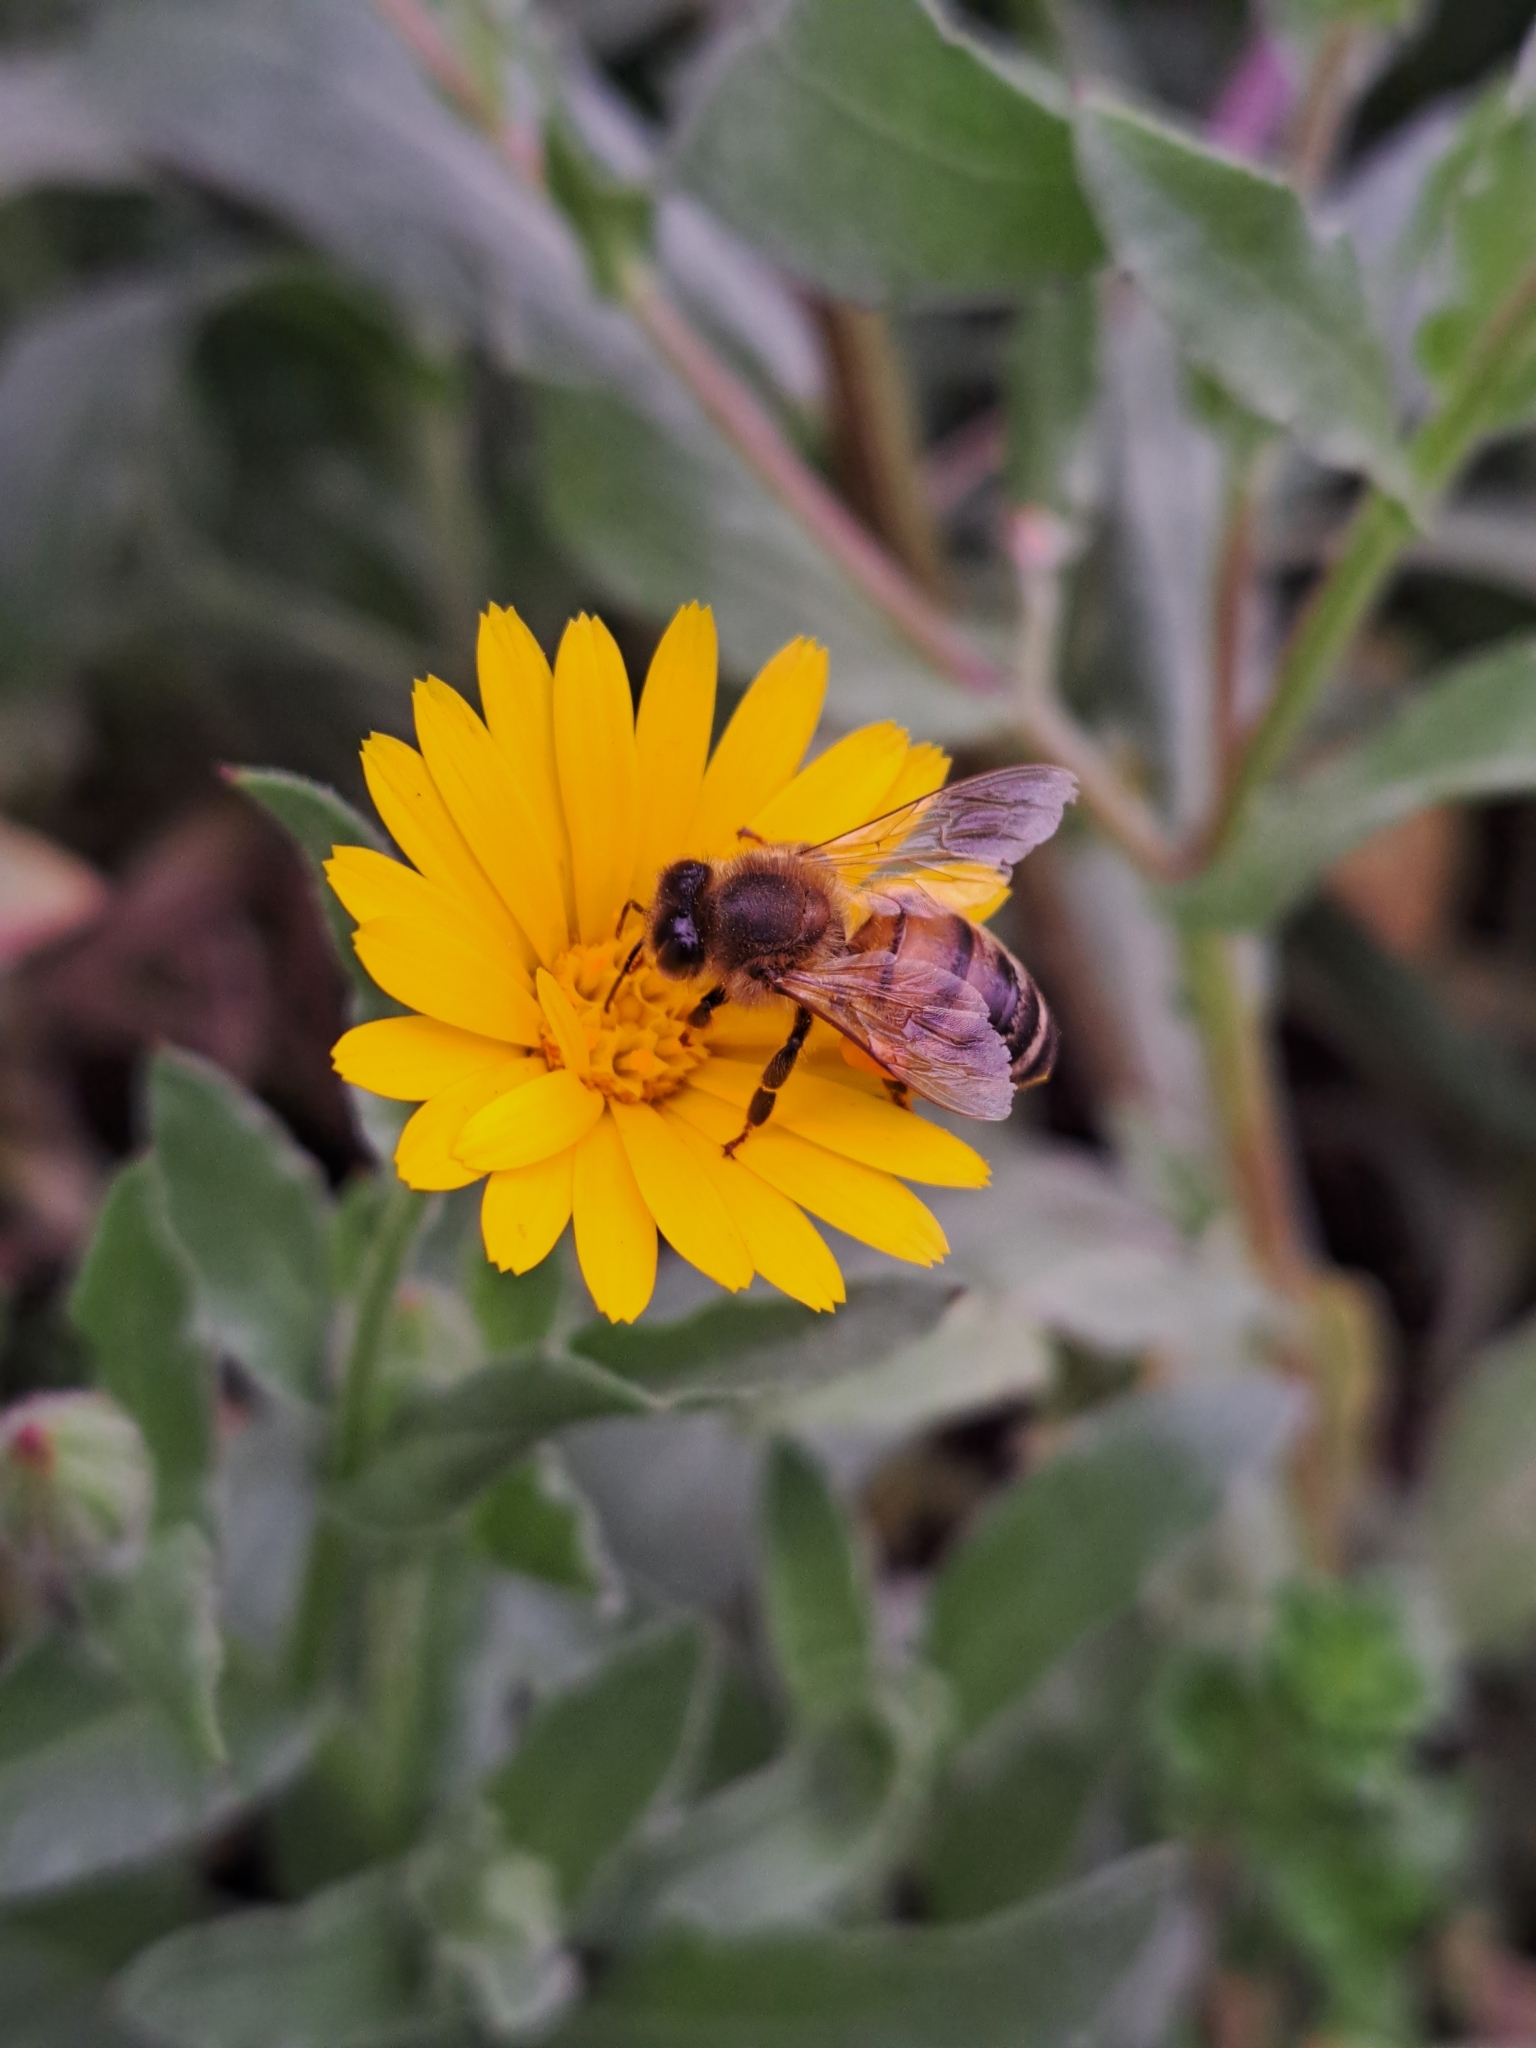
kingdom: Animalia
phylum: Arthropoda
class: Insecta
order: Hymenoptera
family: Apidae
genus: Apis
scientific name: Apis mellifera
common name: Honey bee
